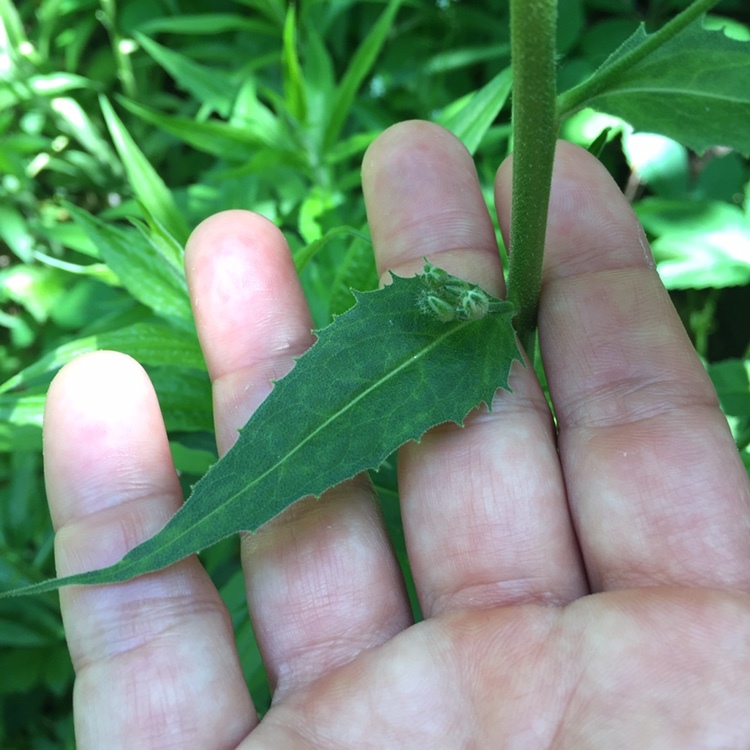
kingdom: Plantae
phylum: Tracheophyta
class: Magnoliopsida
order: Brassicales
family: Brassicaceae
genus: Hesperis
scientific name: Hesperis matronalis
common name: Dame's-violet
